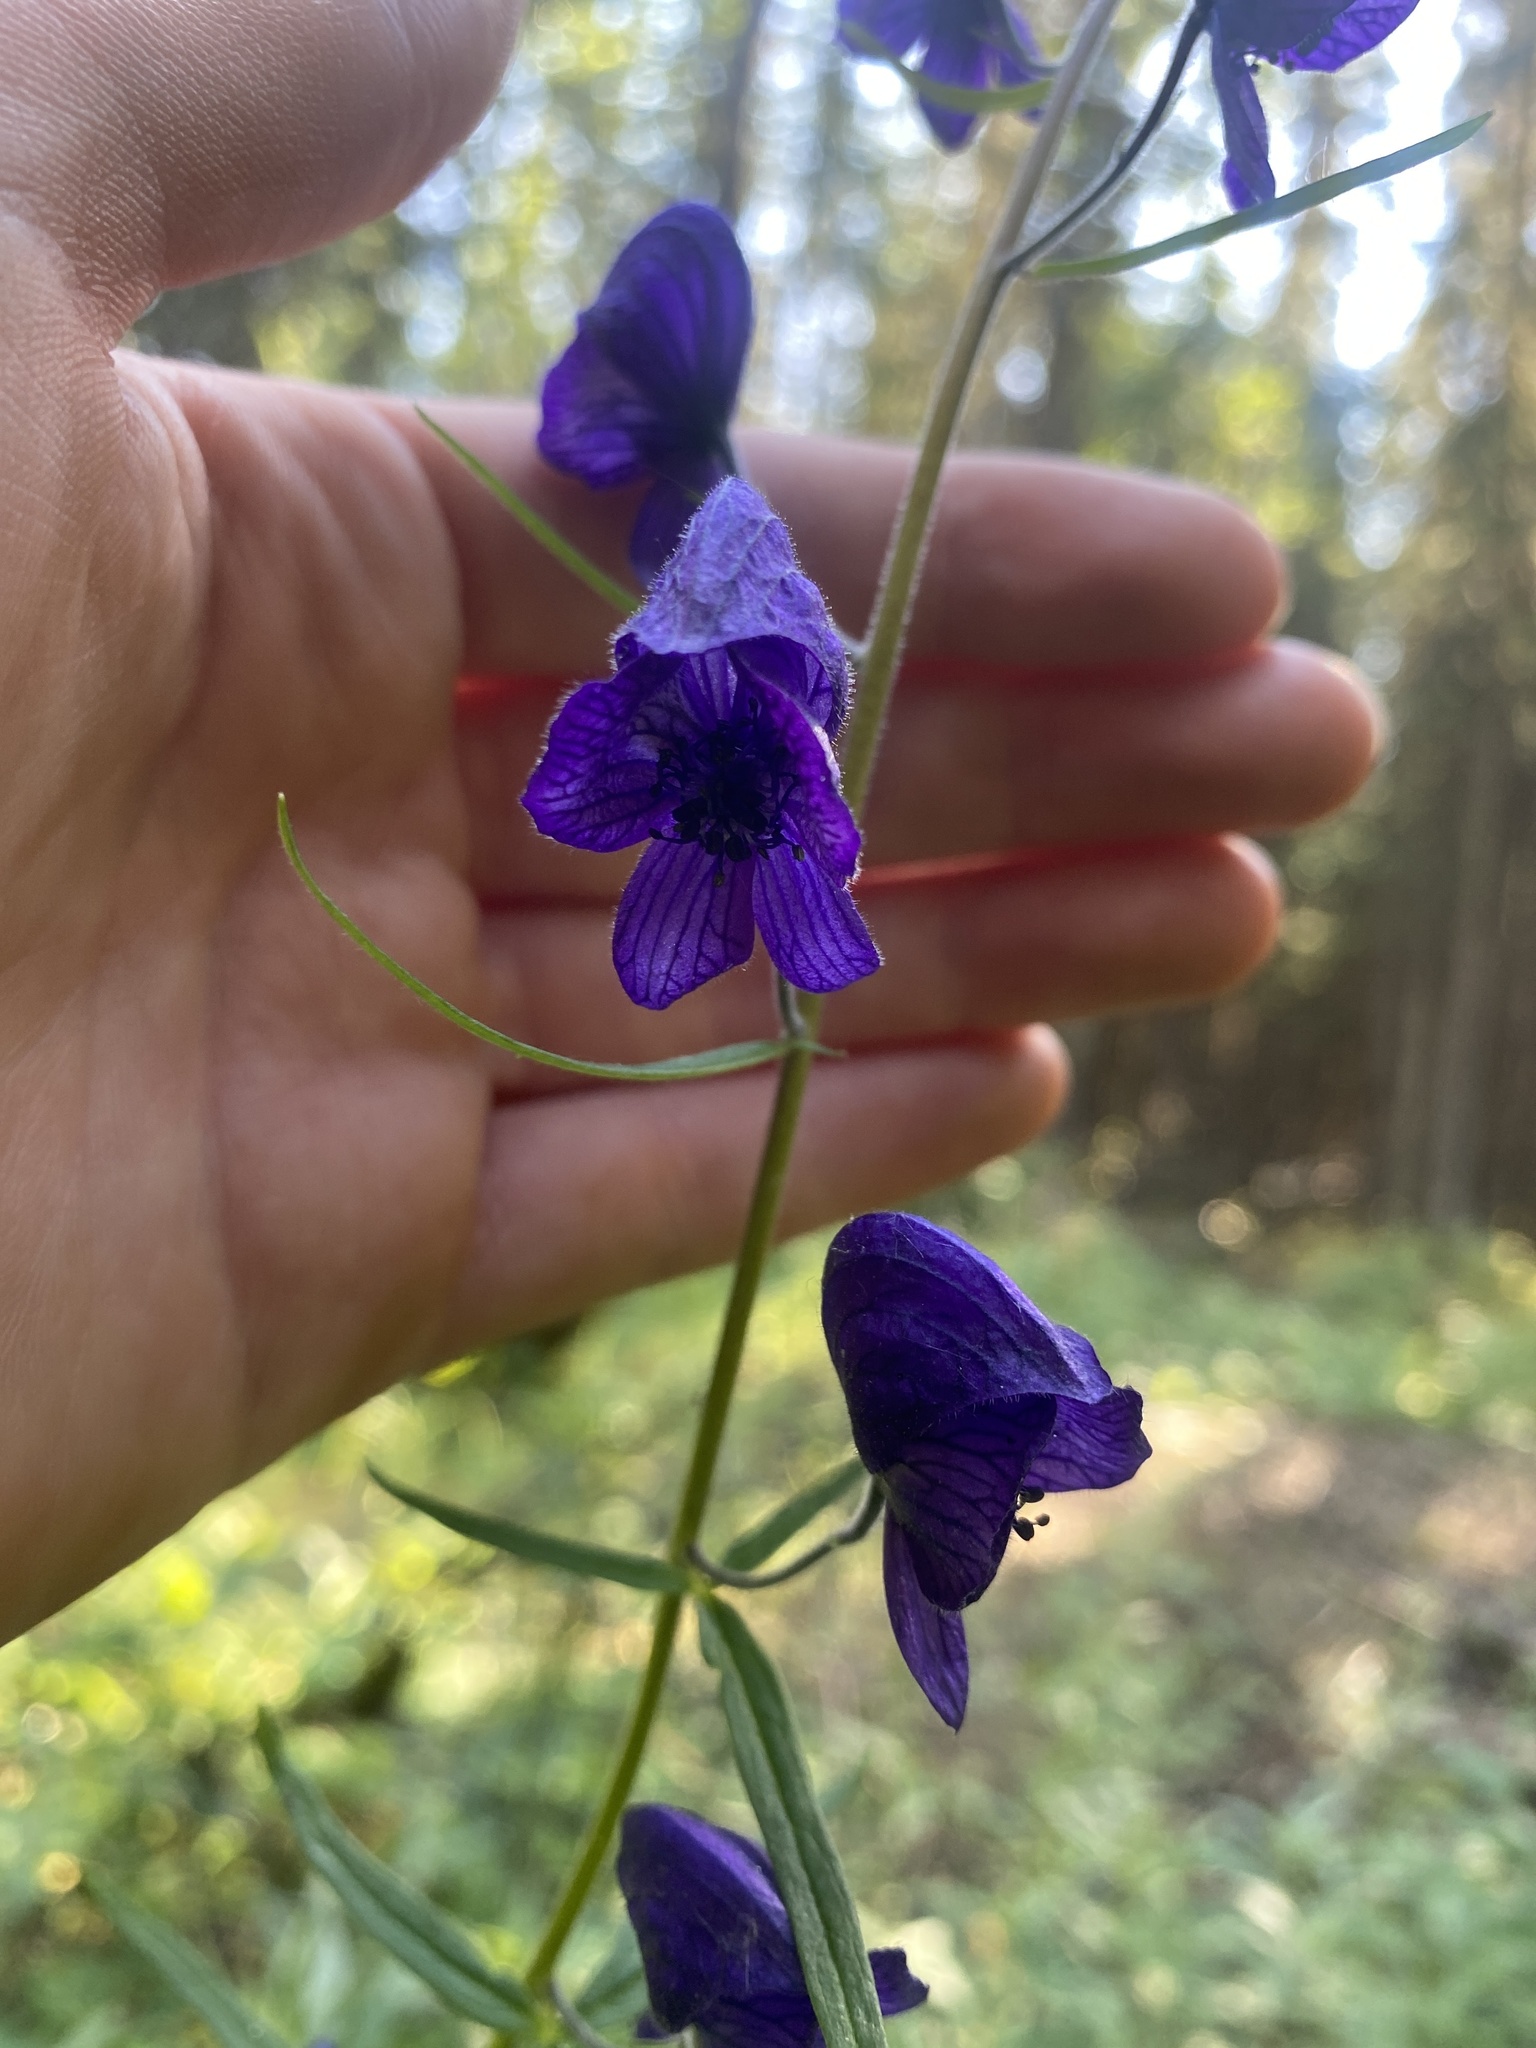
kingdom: Plantae
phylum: Tracheophyta
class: Magnoliopsida
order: Ranunculales
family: Ranunculaceae
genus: Aconitum
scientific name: Aconitum delphiniifolium
